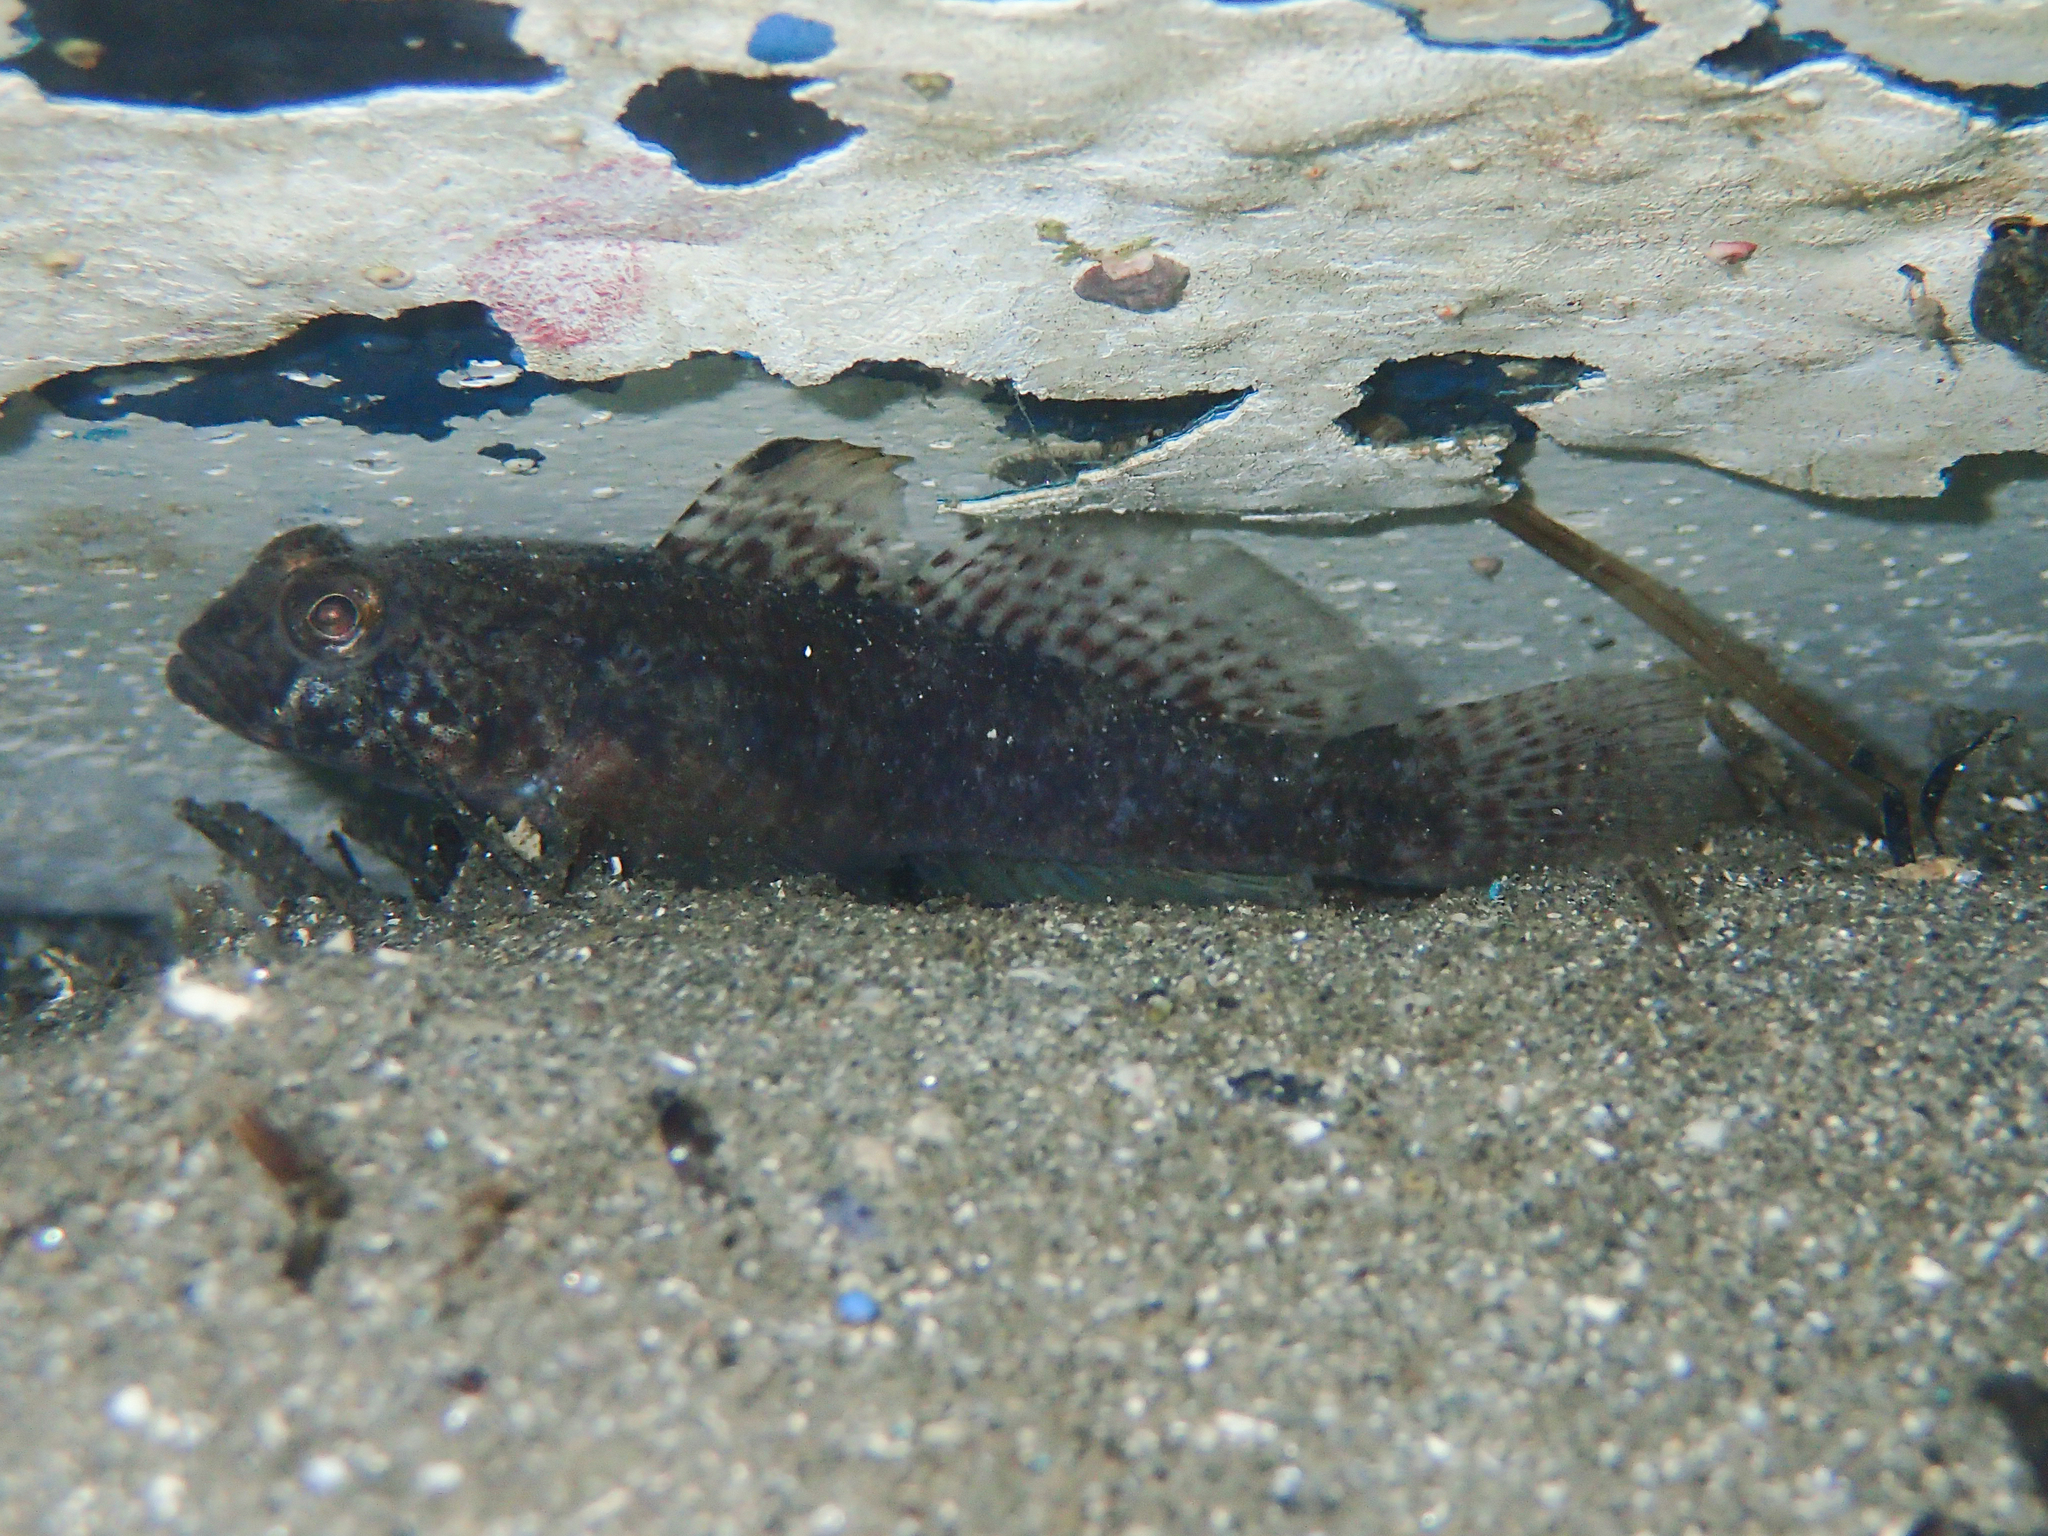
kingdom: Animalia
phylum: Chordata
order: Perciformes
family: Gobiidae
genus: Gobius
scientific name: Gobius niger
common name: Black goby
